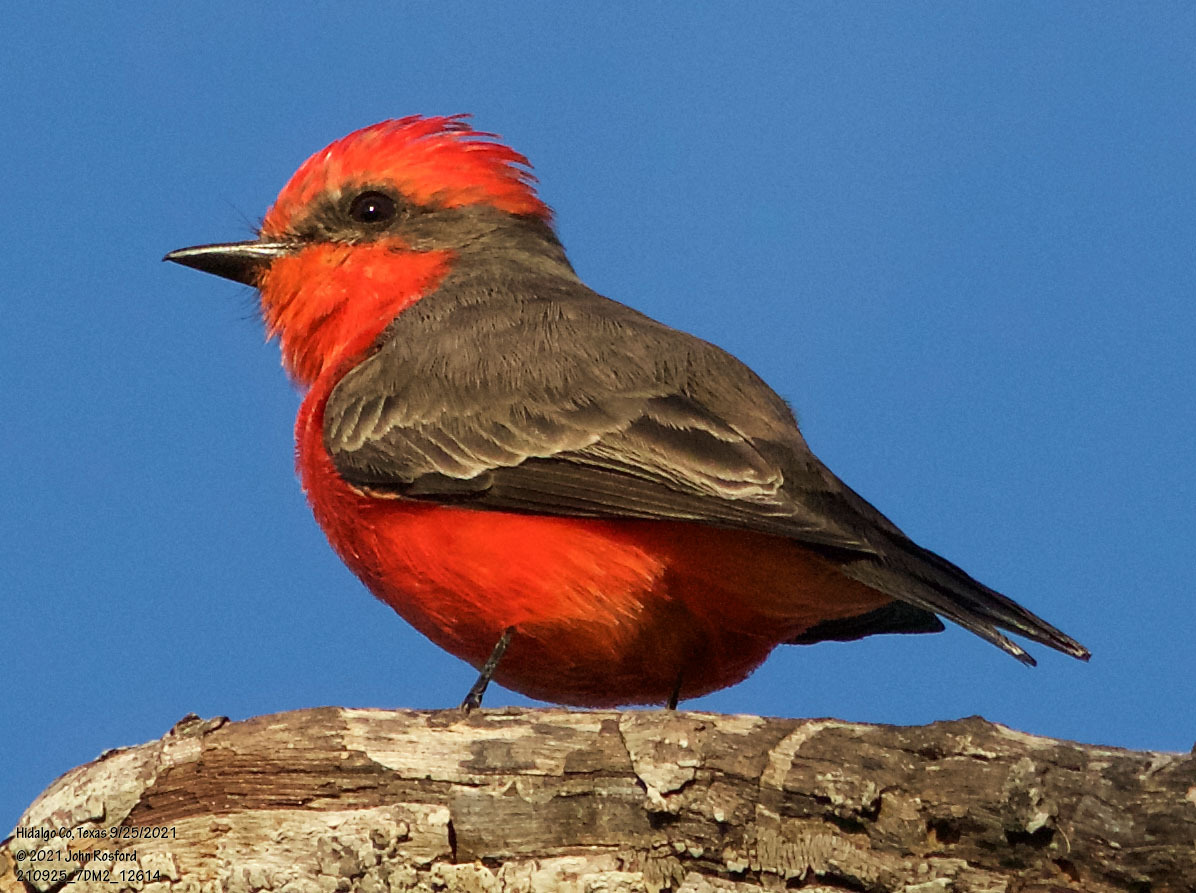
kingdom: Animalia
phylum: Chordata
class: Aves
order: Passeriformes
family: Tyrannidae
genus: Pyrocephalus
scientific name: Pyrocephalus rubinus
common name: Vermilion flycatcher
